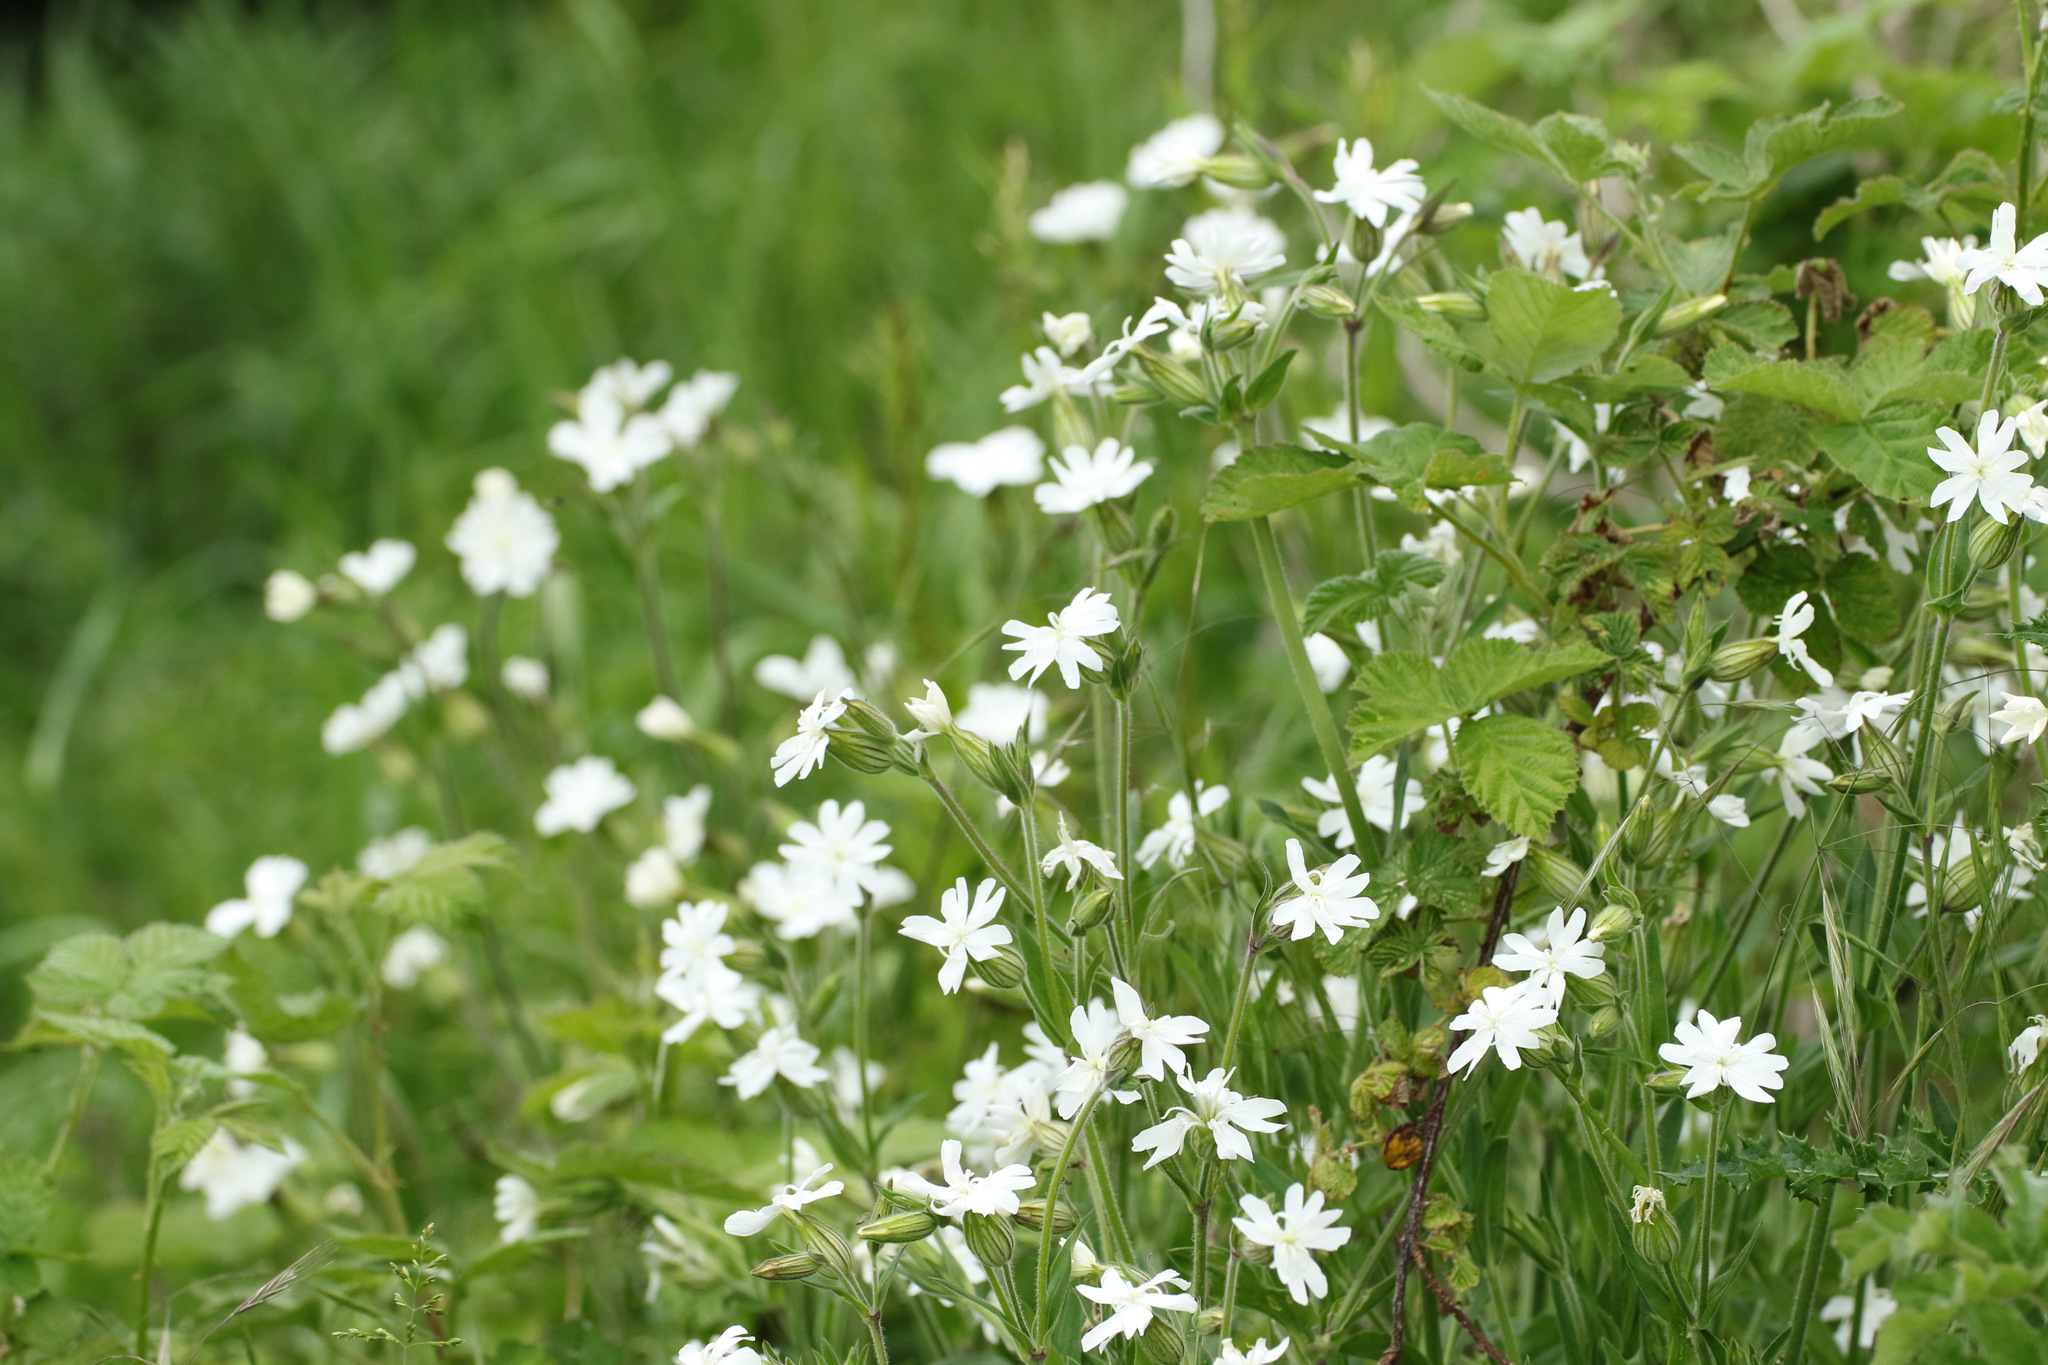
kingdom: Plantae
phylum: Tracheophyta
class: Magnoliopsida
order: Caryophyllales
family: Caryophyllaceae
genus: Silene
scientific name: Silene latifolia
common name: White campion
